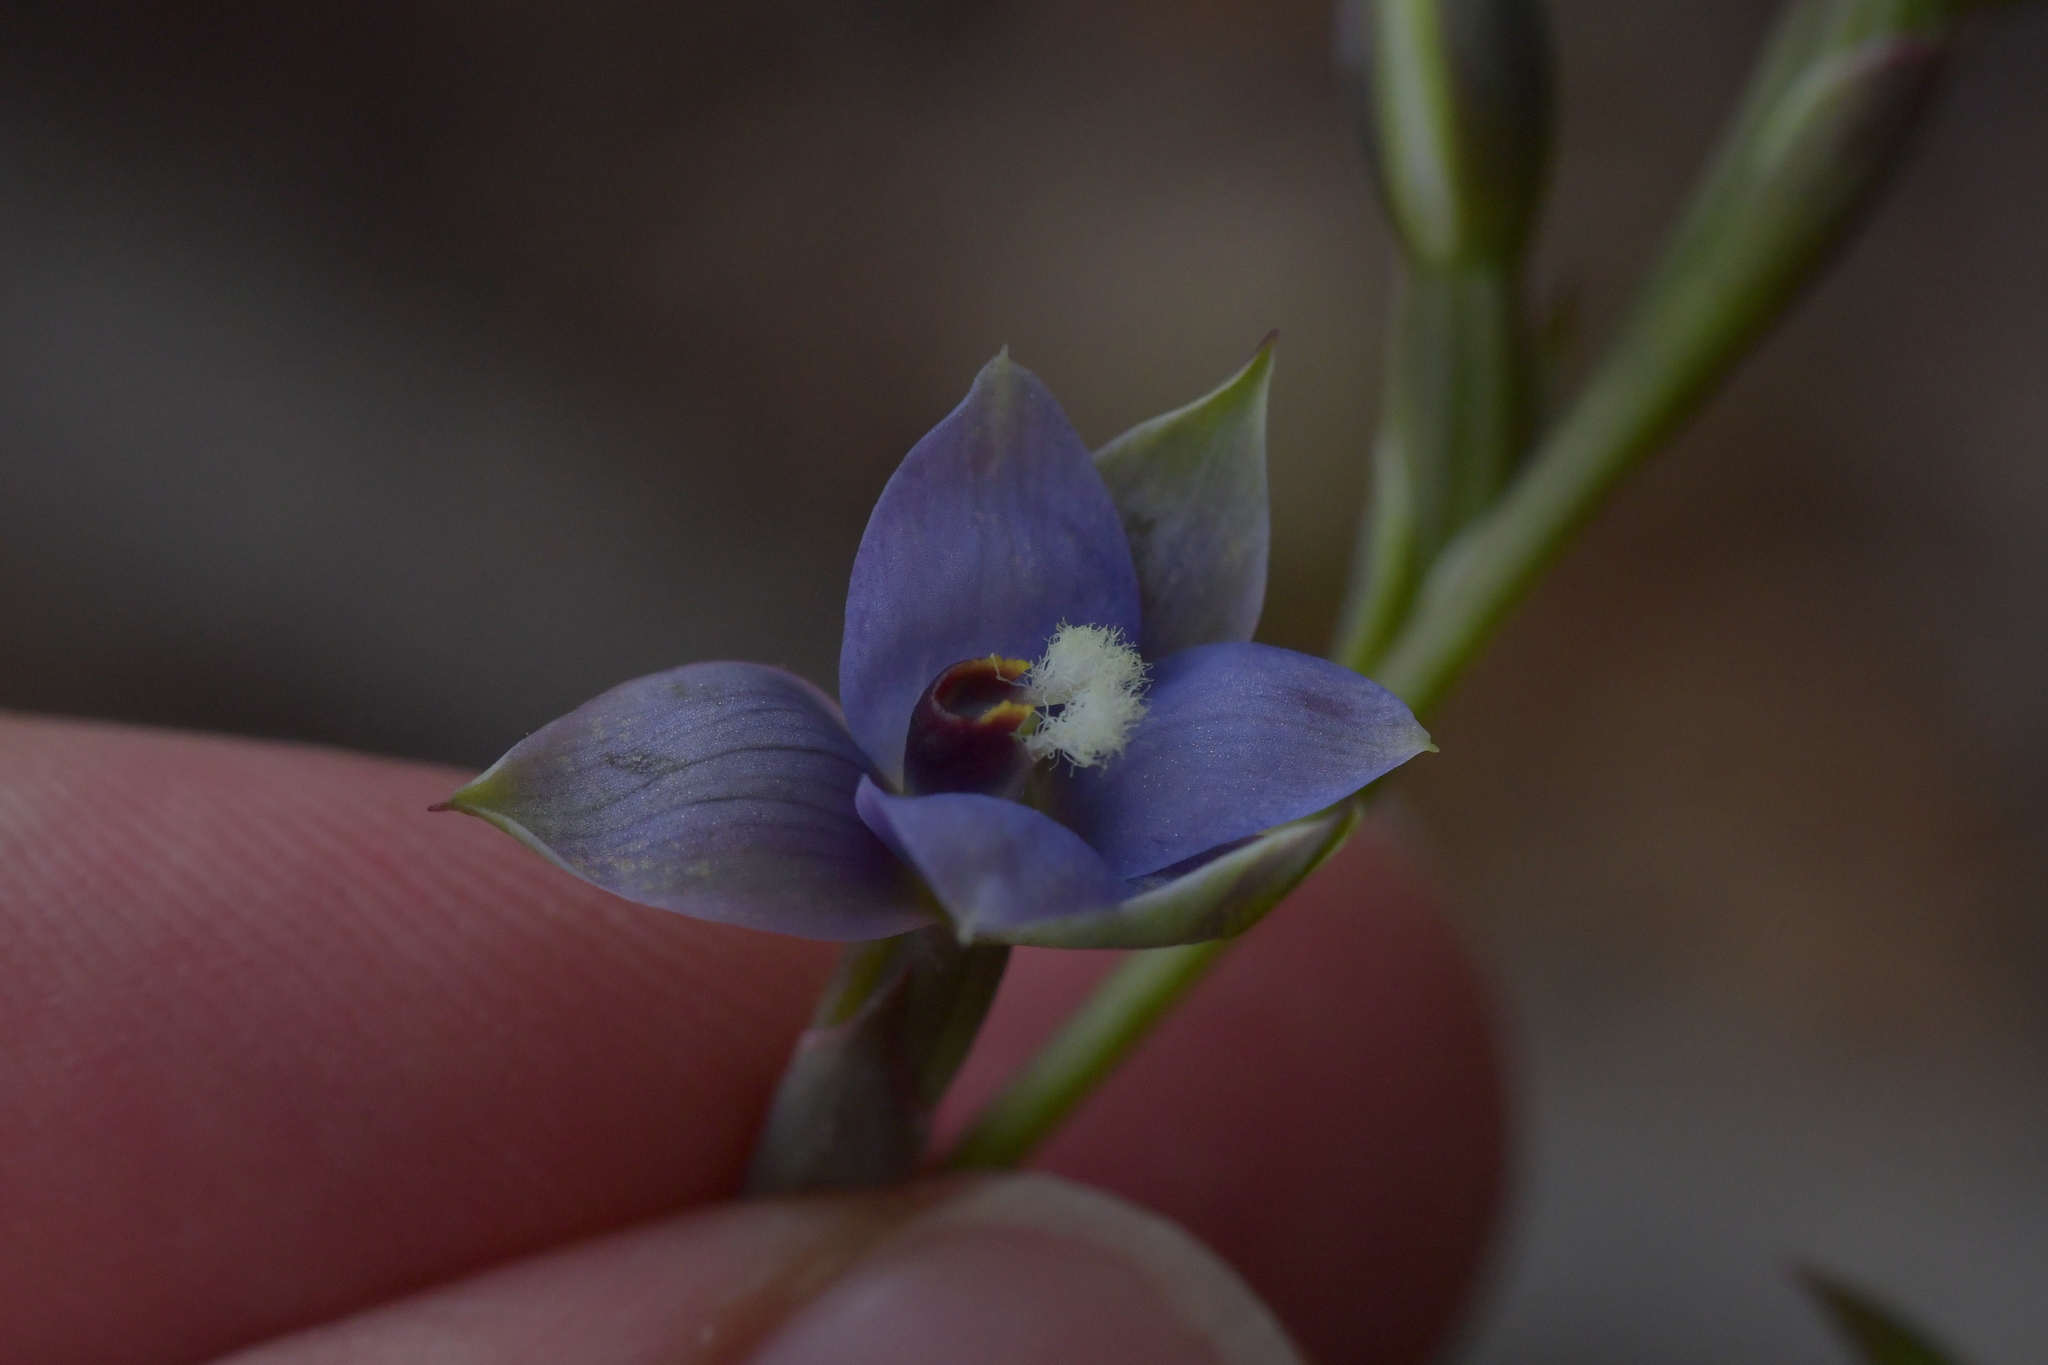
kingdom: Plantae
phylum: Tracheophyta
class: Liliopsida
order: Asparagales
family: Orchidaceae
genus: Thelymitra
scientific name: Thelymitra hatchii
